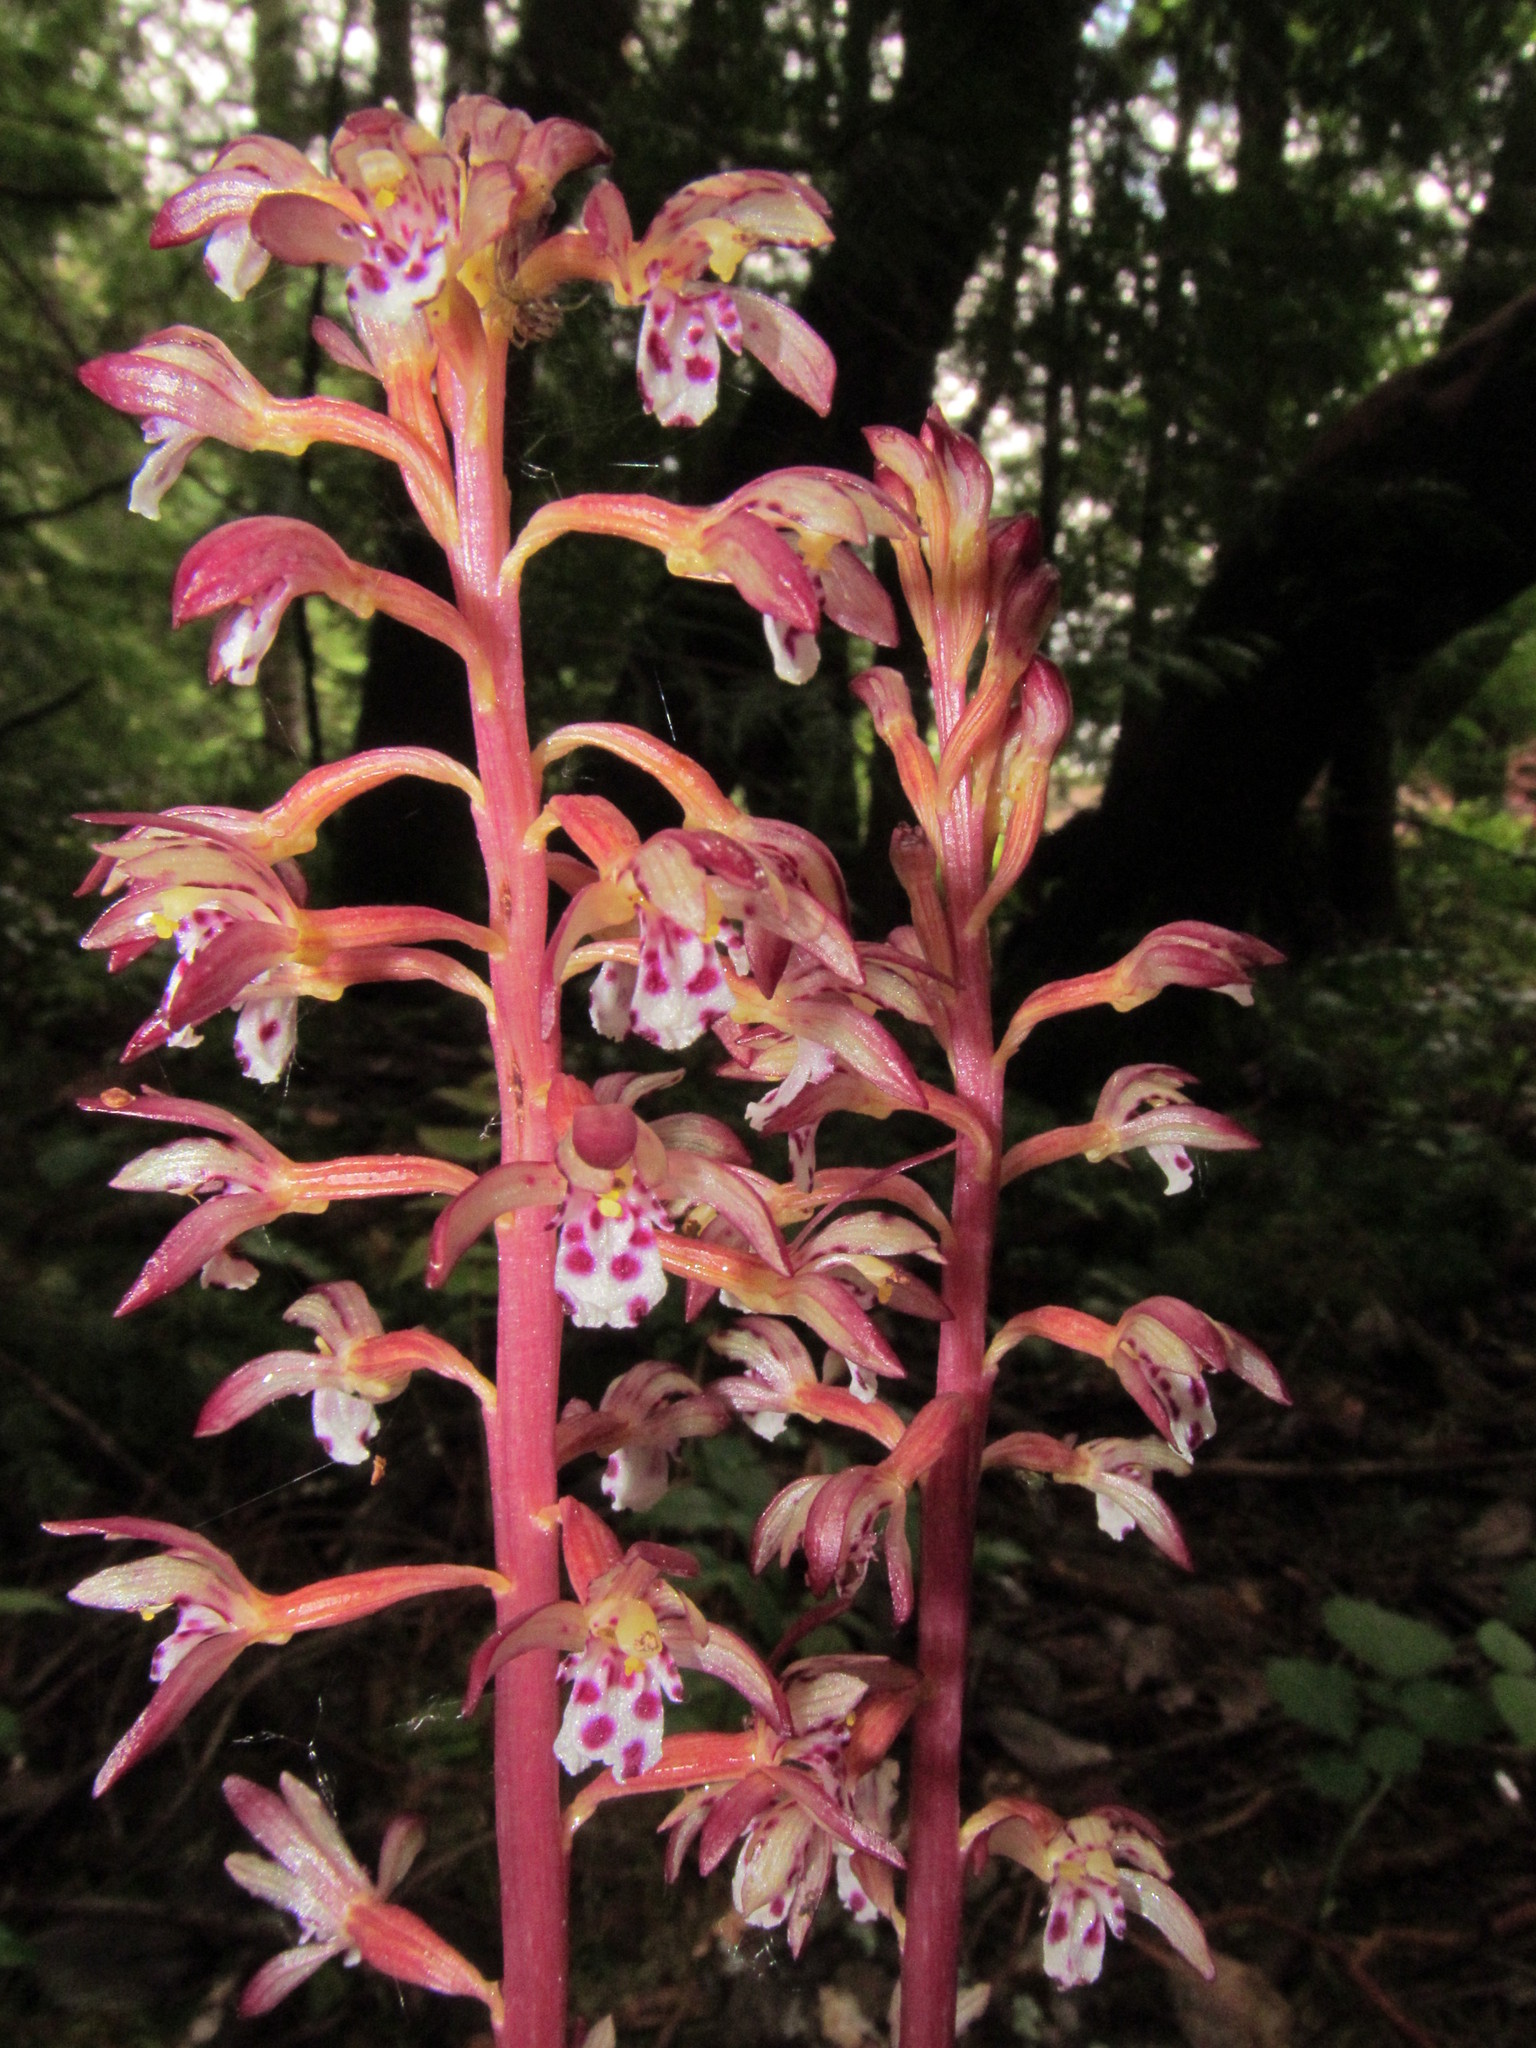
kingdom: Plantae
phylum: Tracheophyta
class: Liliopsida
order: Asparagales
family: Orchidaceae
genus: Corallorhiza
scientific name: Corallorhiza maculata
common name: Spotted coralroot
